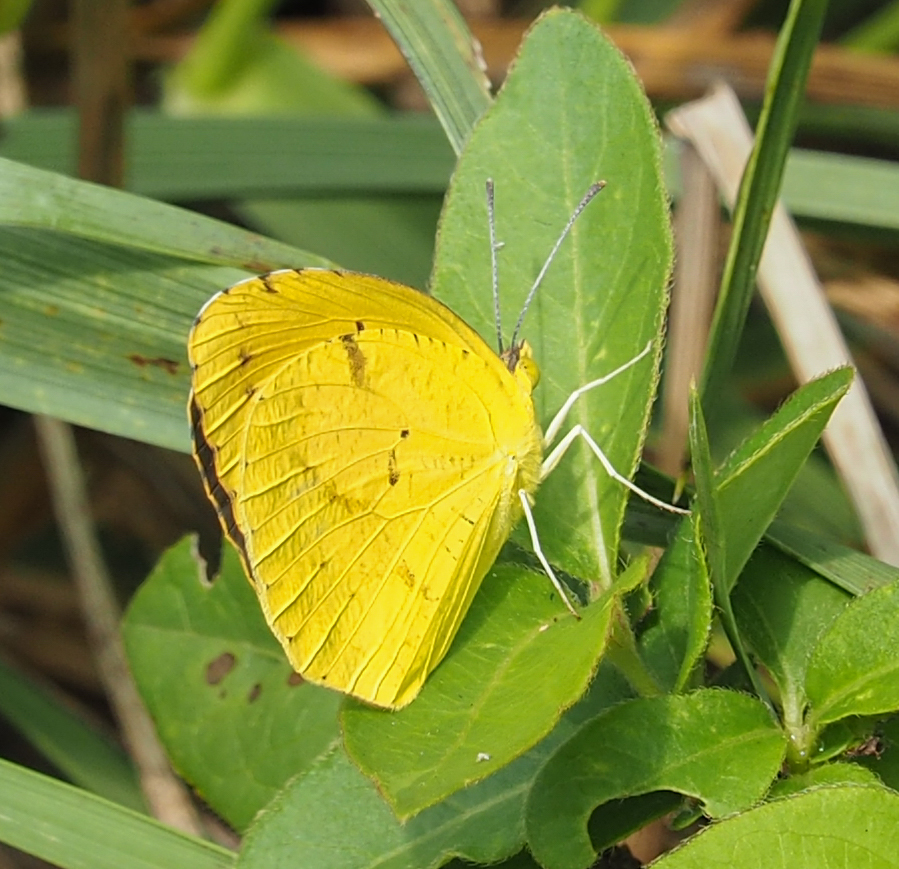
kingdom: Animalia
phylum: Arthropoda
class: Insecta
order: Lepidoptera
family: Pieridae
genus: Abaeis
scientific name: Abaeis nicippe
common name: Sleepy orange
